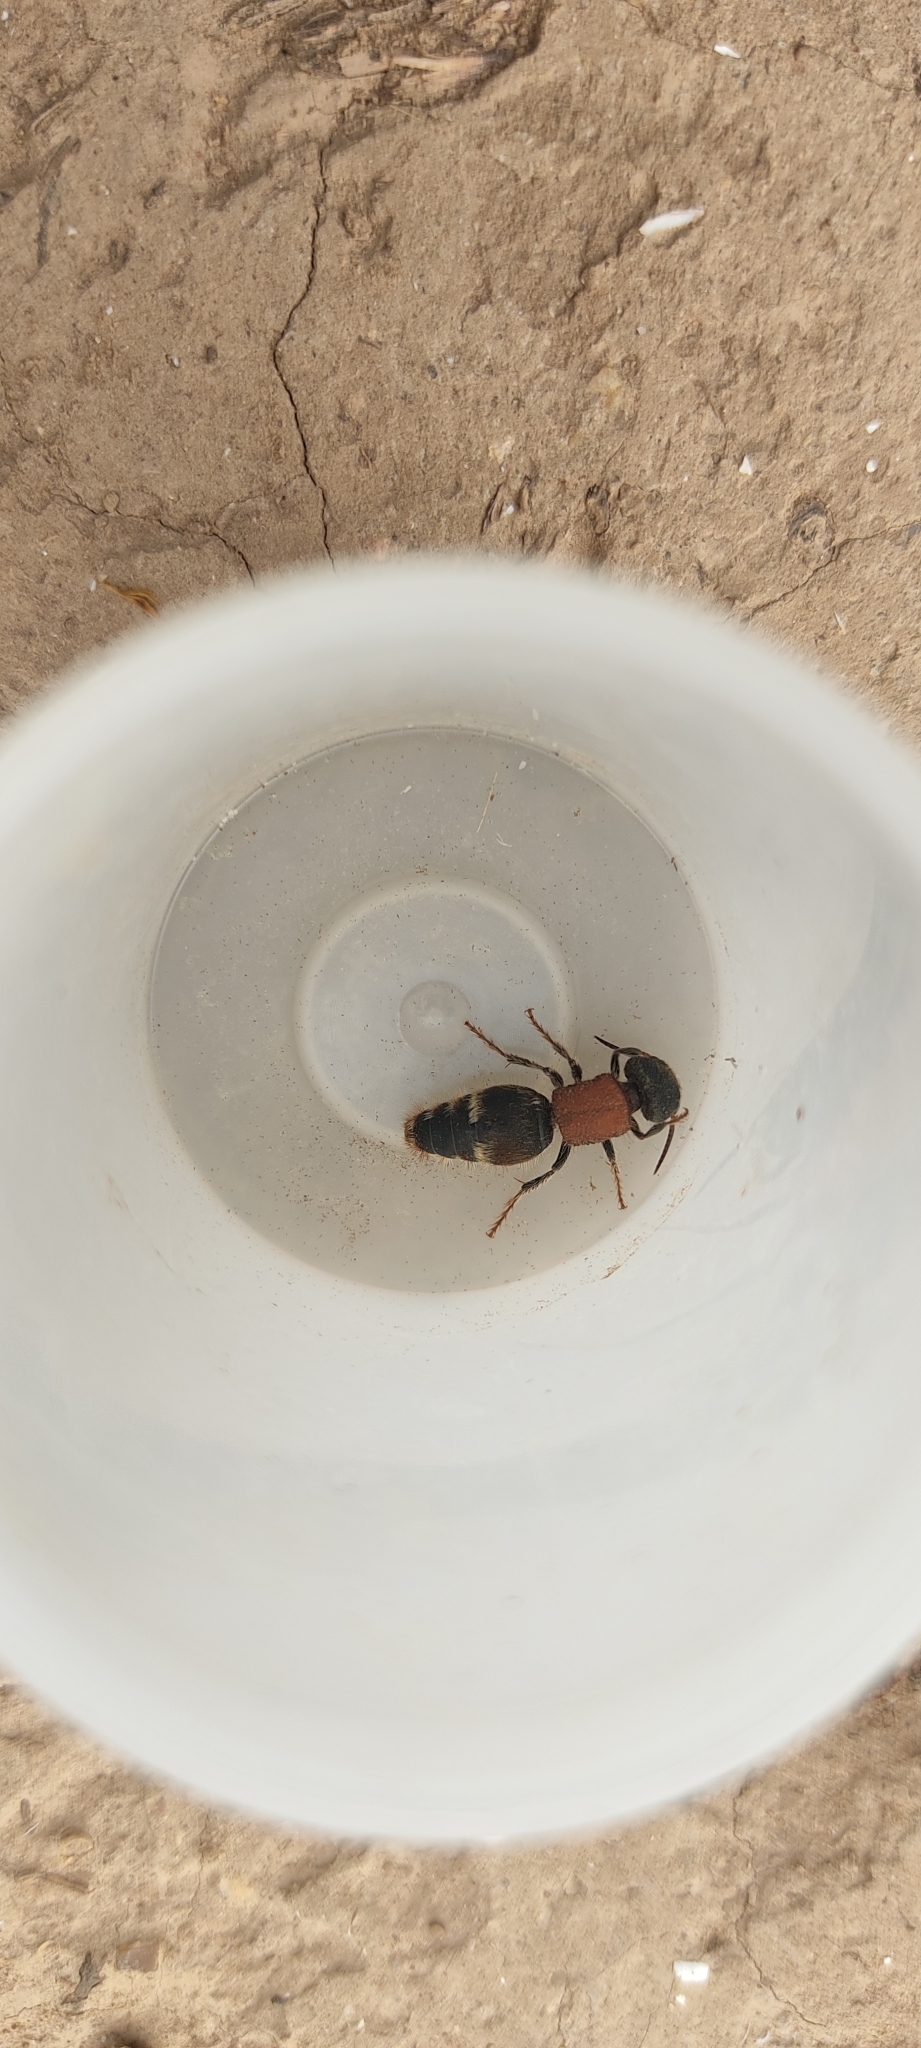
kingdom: Animalia
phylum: Arthropoda
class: Insecta
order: Hymenoptera
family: Mutillidae
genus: Tropidotilla
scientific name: Tropidotilla litoralis
